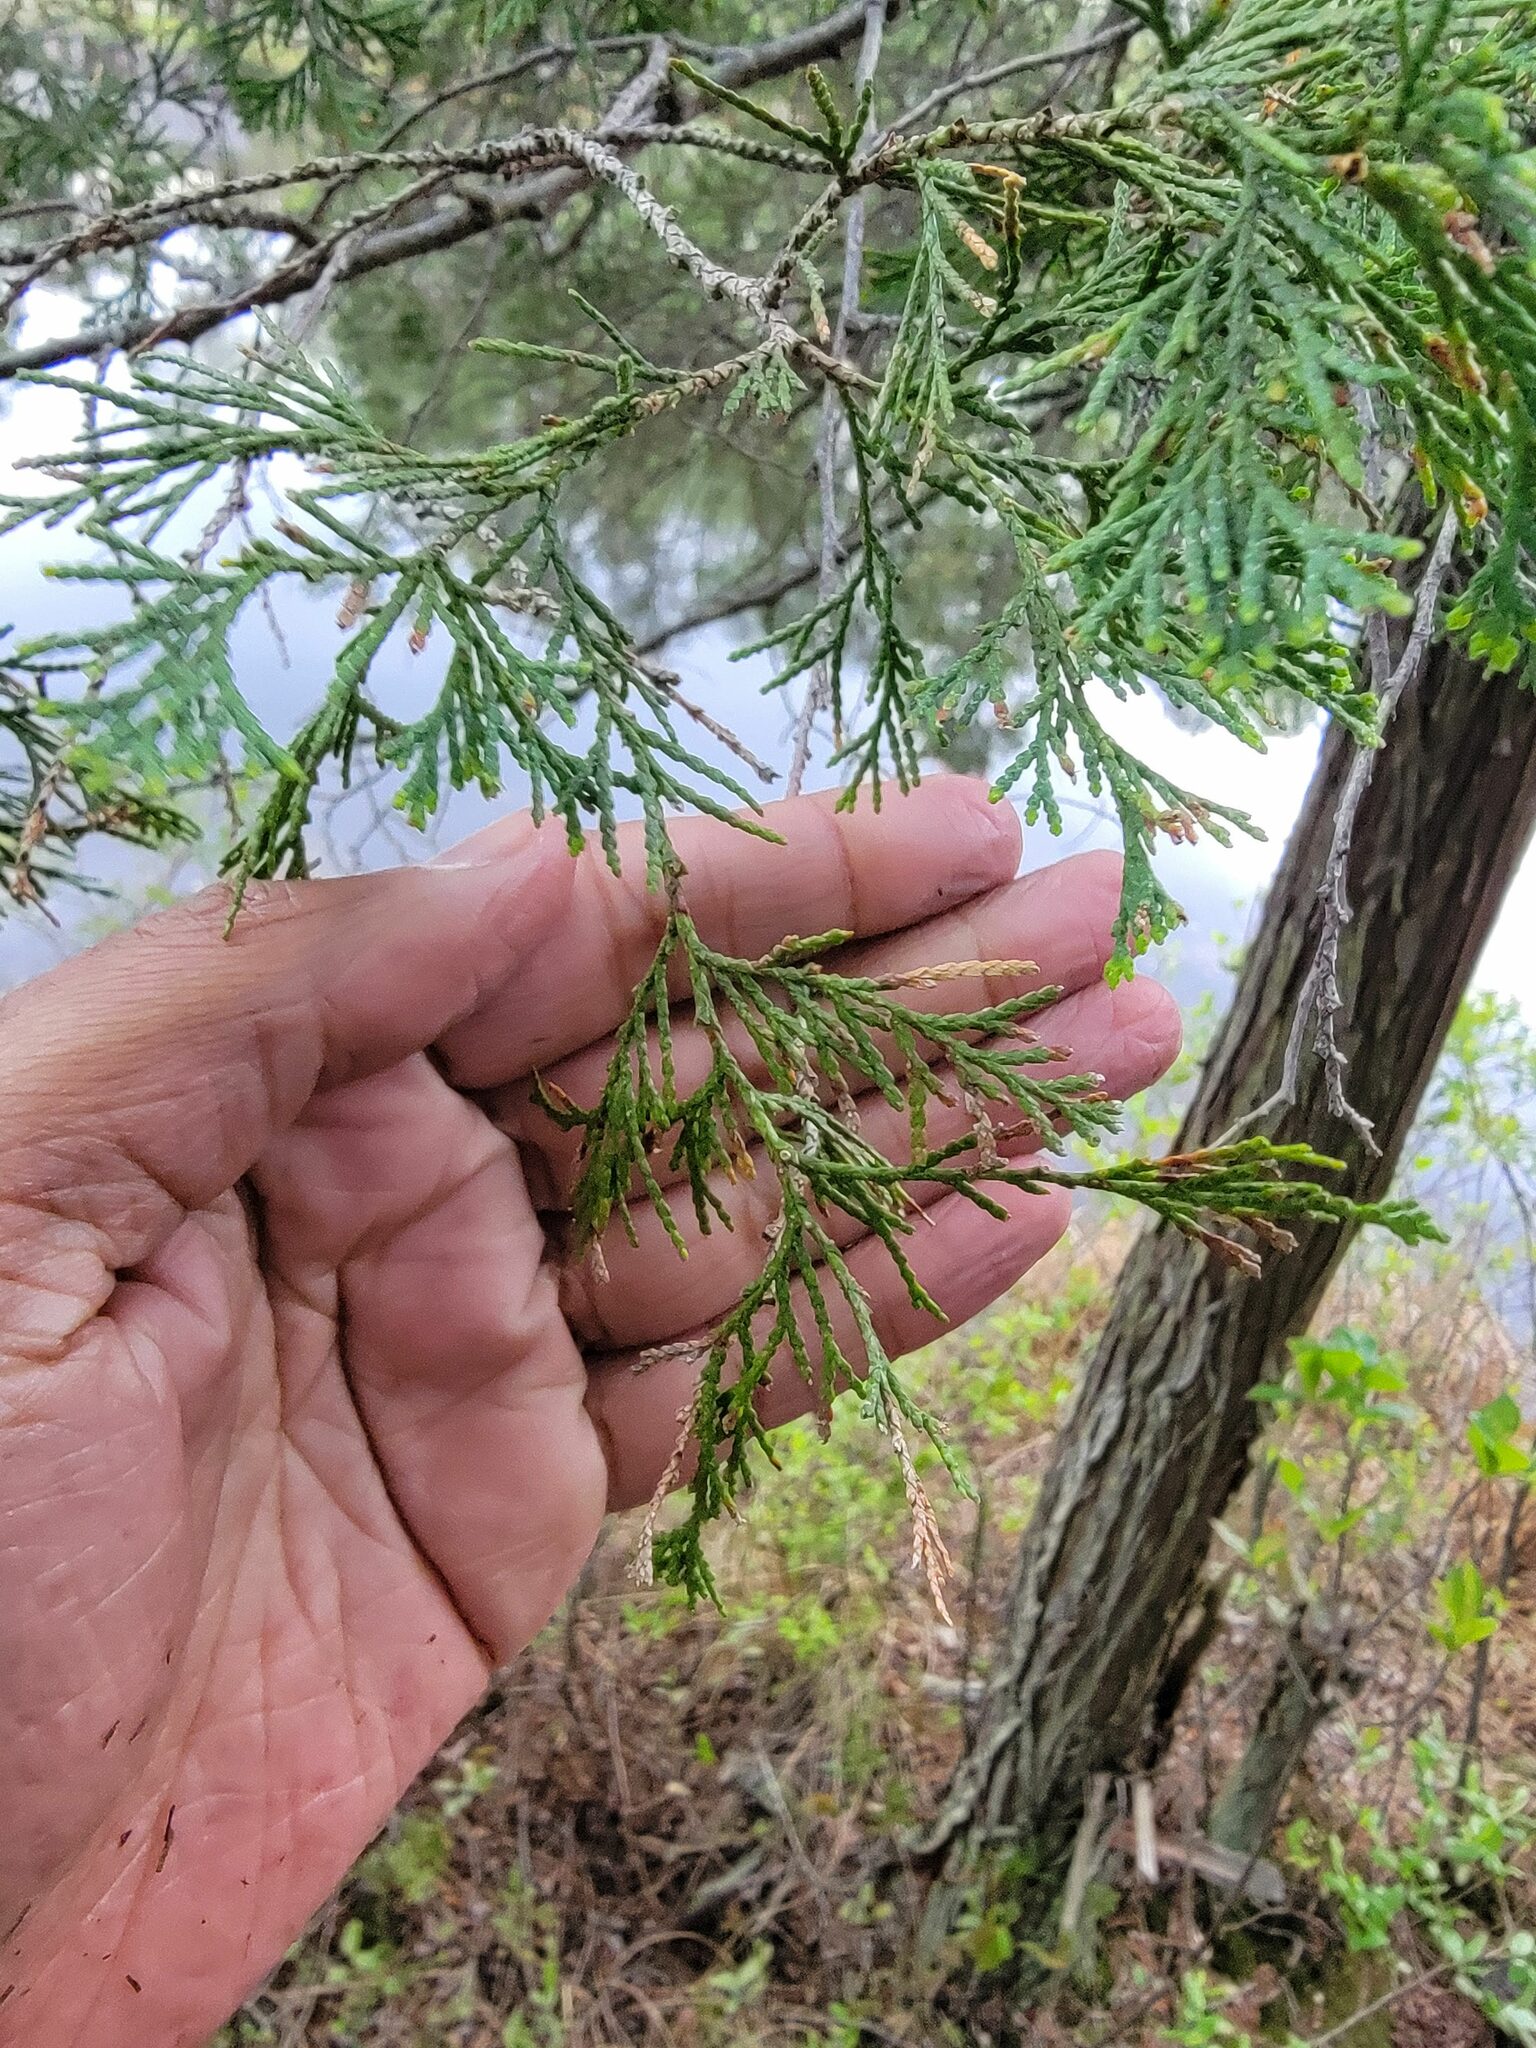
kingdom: Plantae
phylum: Tracheophyta
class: Pinopsida
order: Pinales
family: Cupressaceae
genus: Chamaecyparis
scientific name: Chamaecyparis thyoides
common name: Atlantic white cedar
